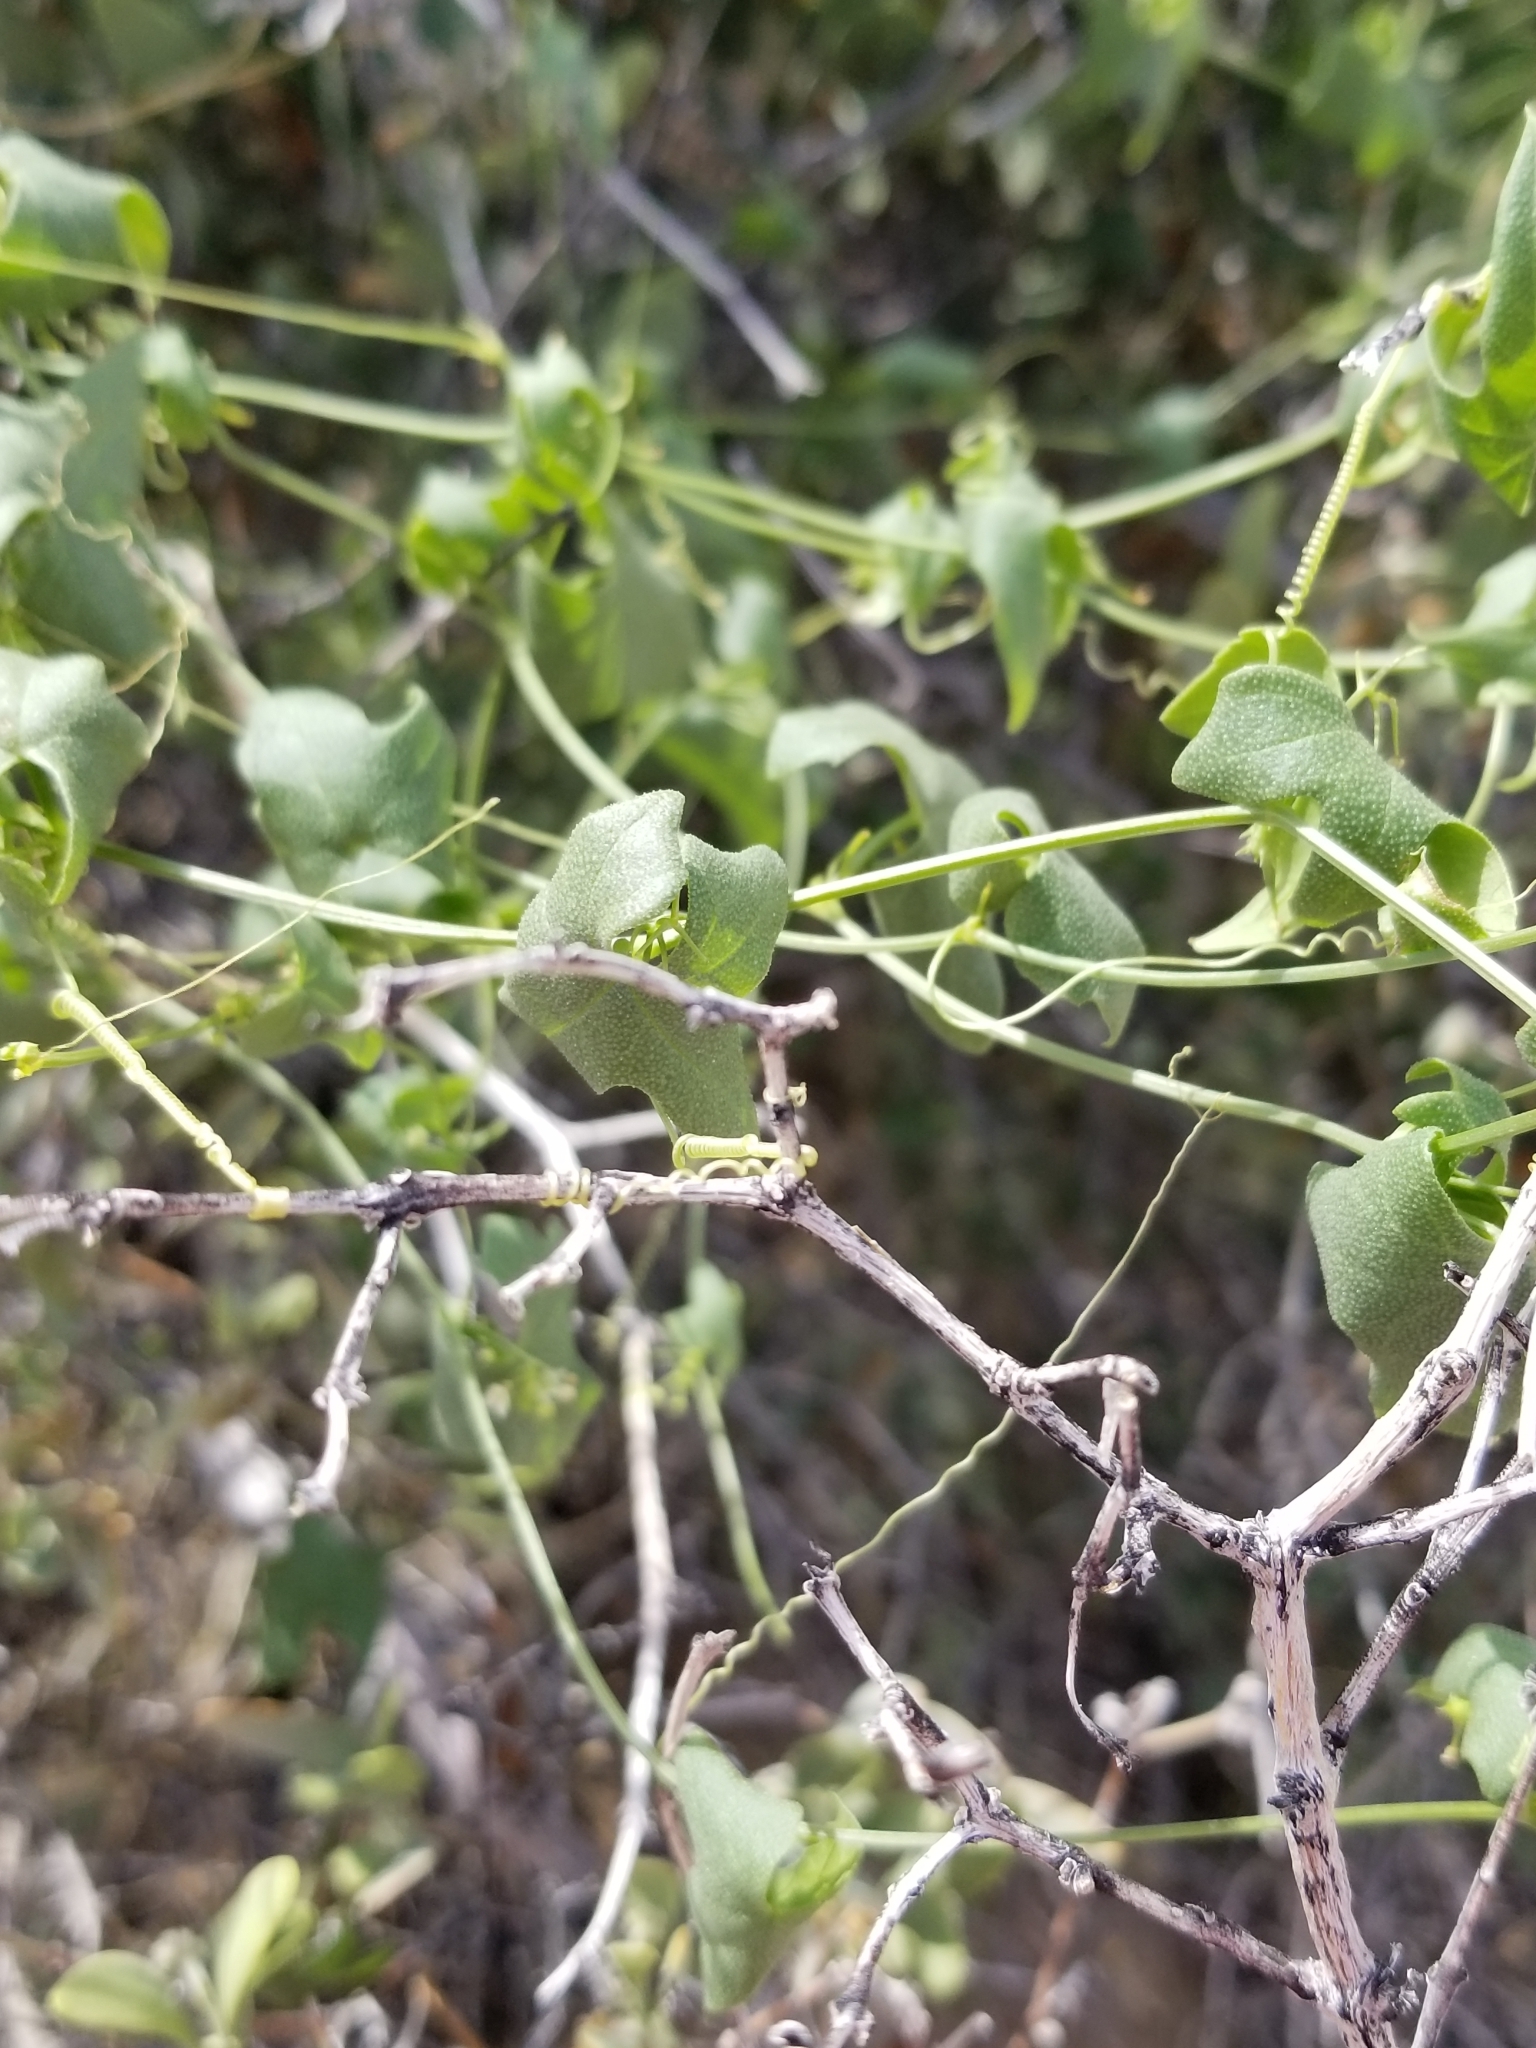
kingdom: Plantae
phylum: Tracheophyta
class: Magnoliopsida
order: Cucurbitales
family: Cucurbitaceae
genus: Echinopepon
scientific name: Echinopepon bigelovii
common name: Desert starvine
